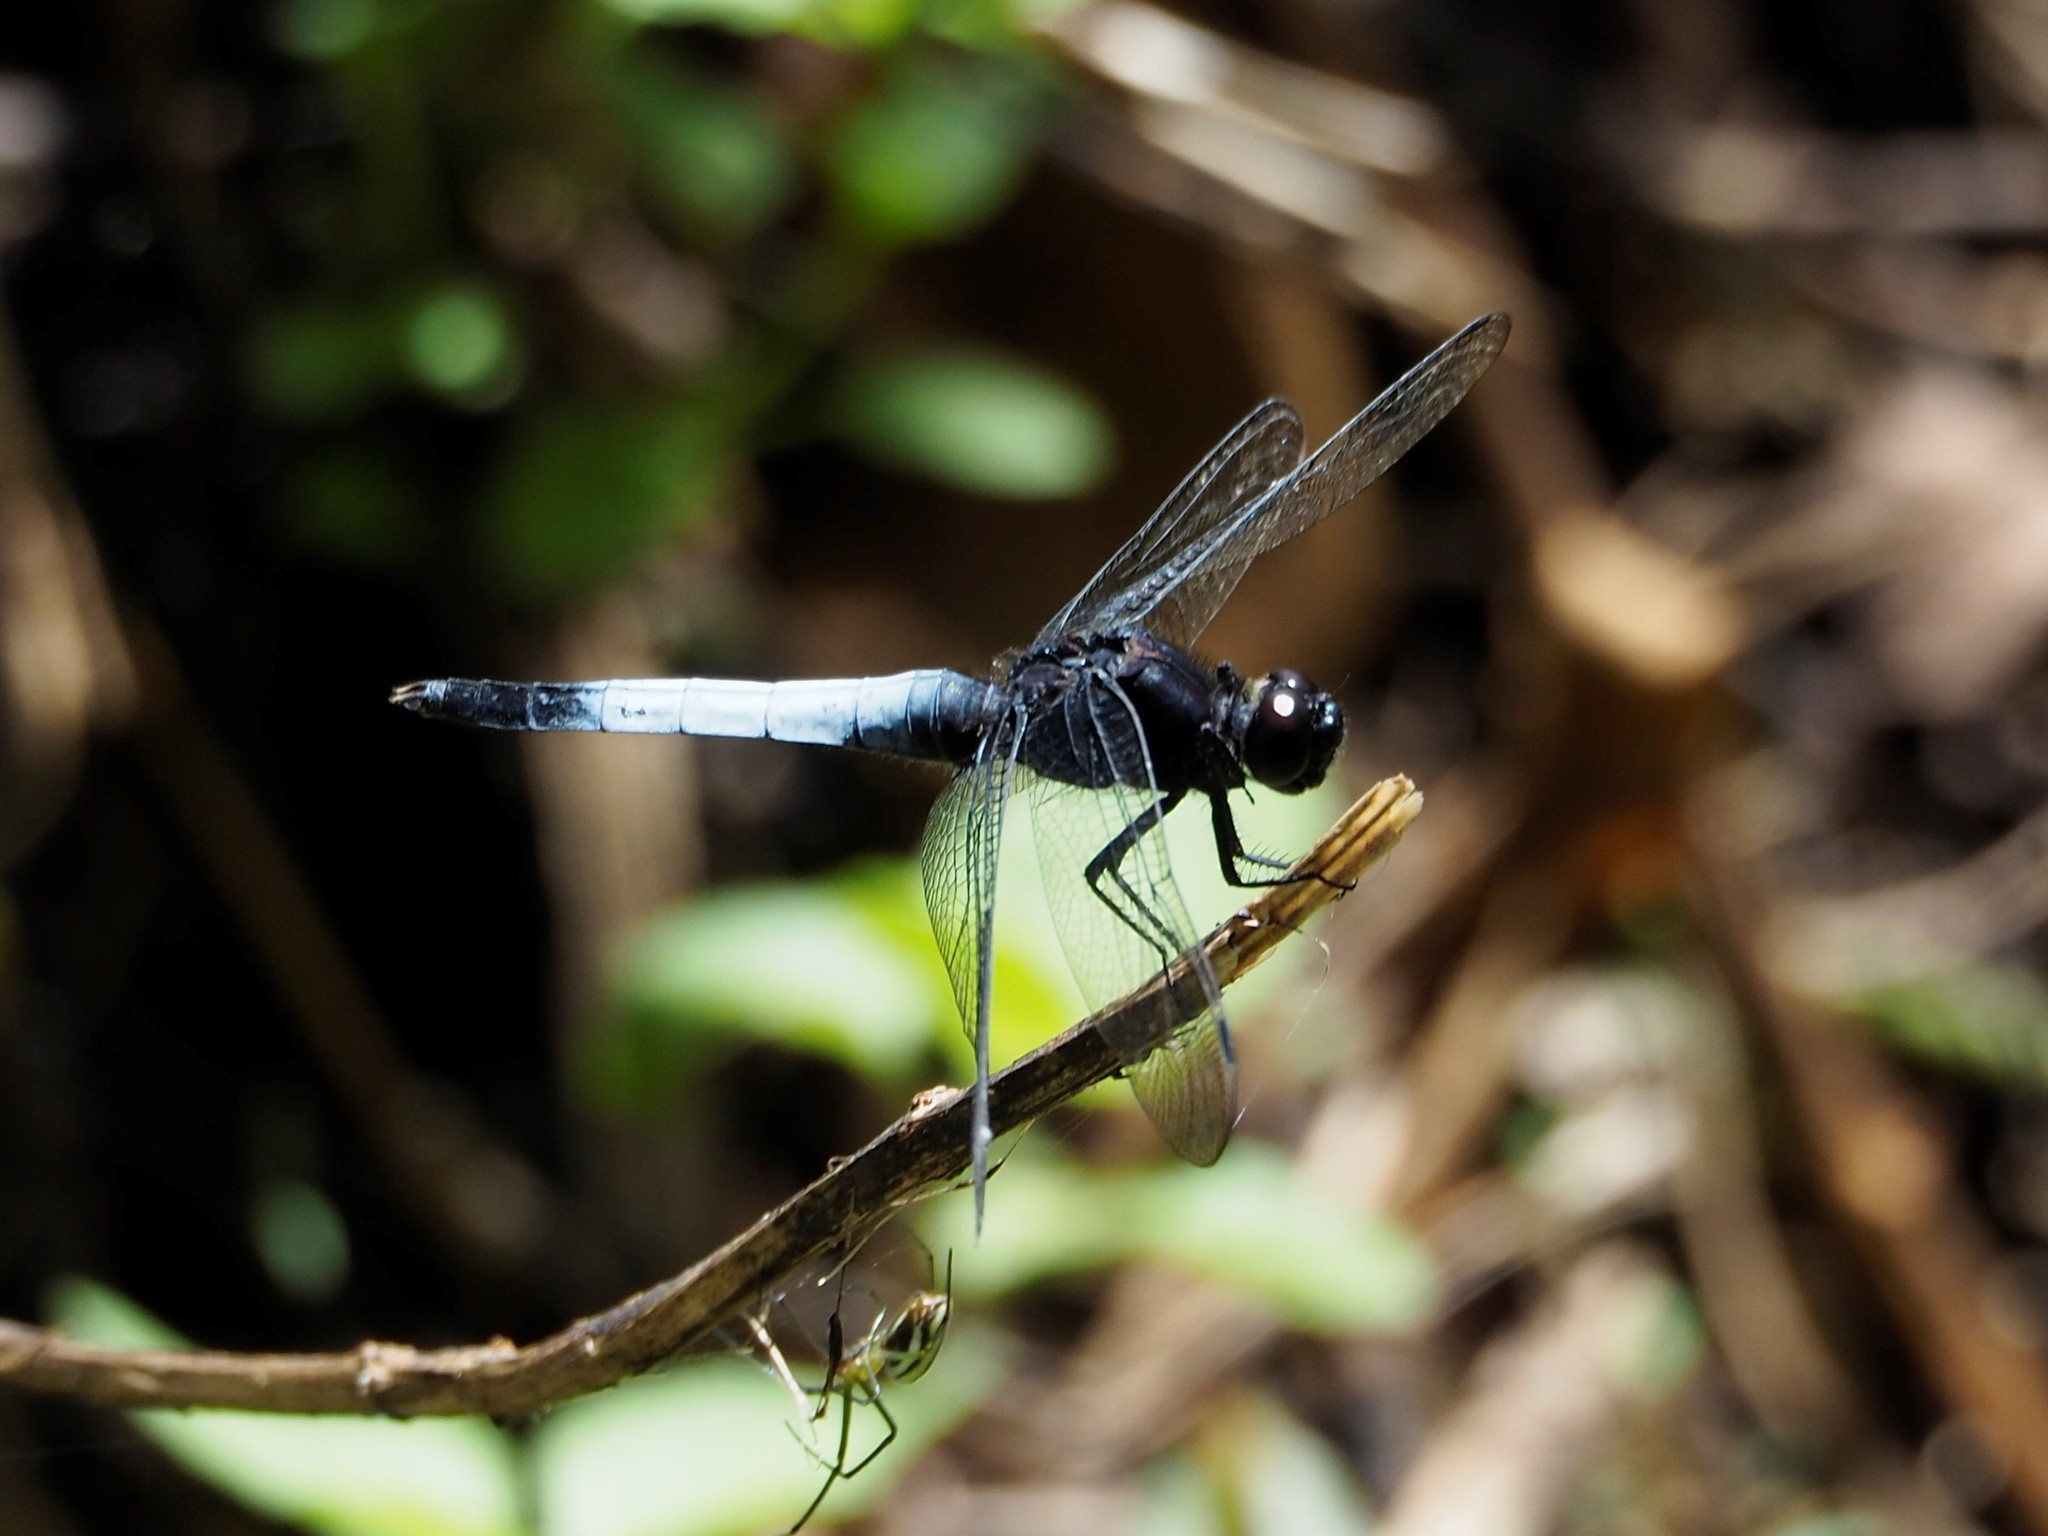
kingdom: Animalia
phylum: Arthropoda
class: Insecta
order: Odonata
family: Libellulidae
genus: Orthetrum
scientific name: Orthetrum triangulare
